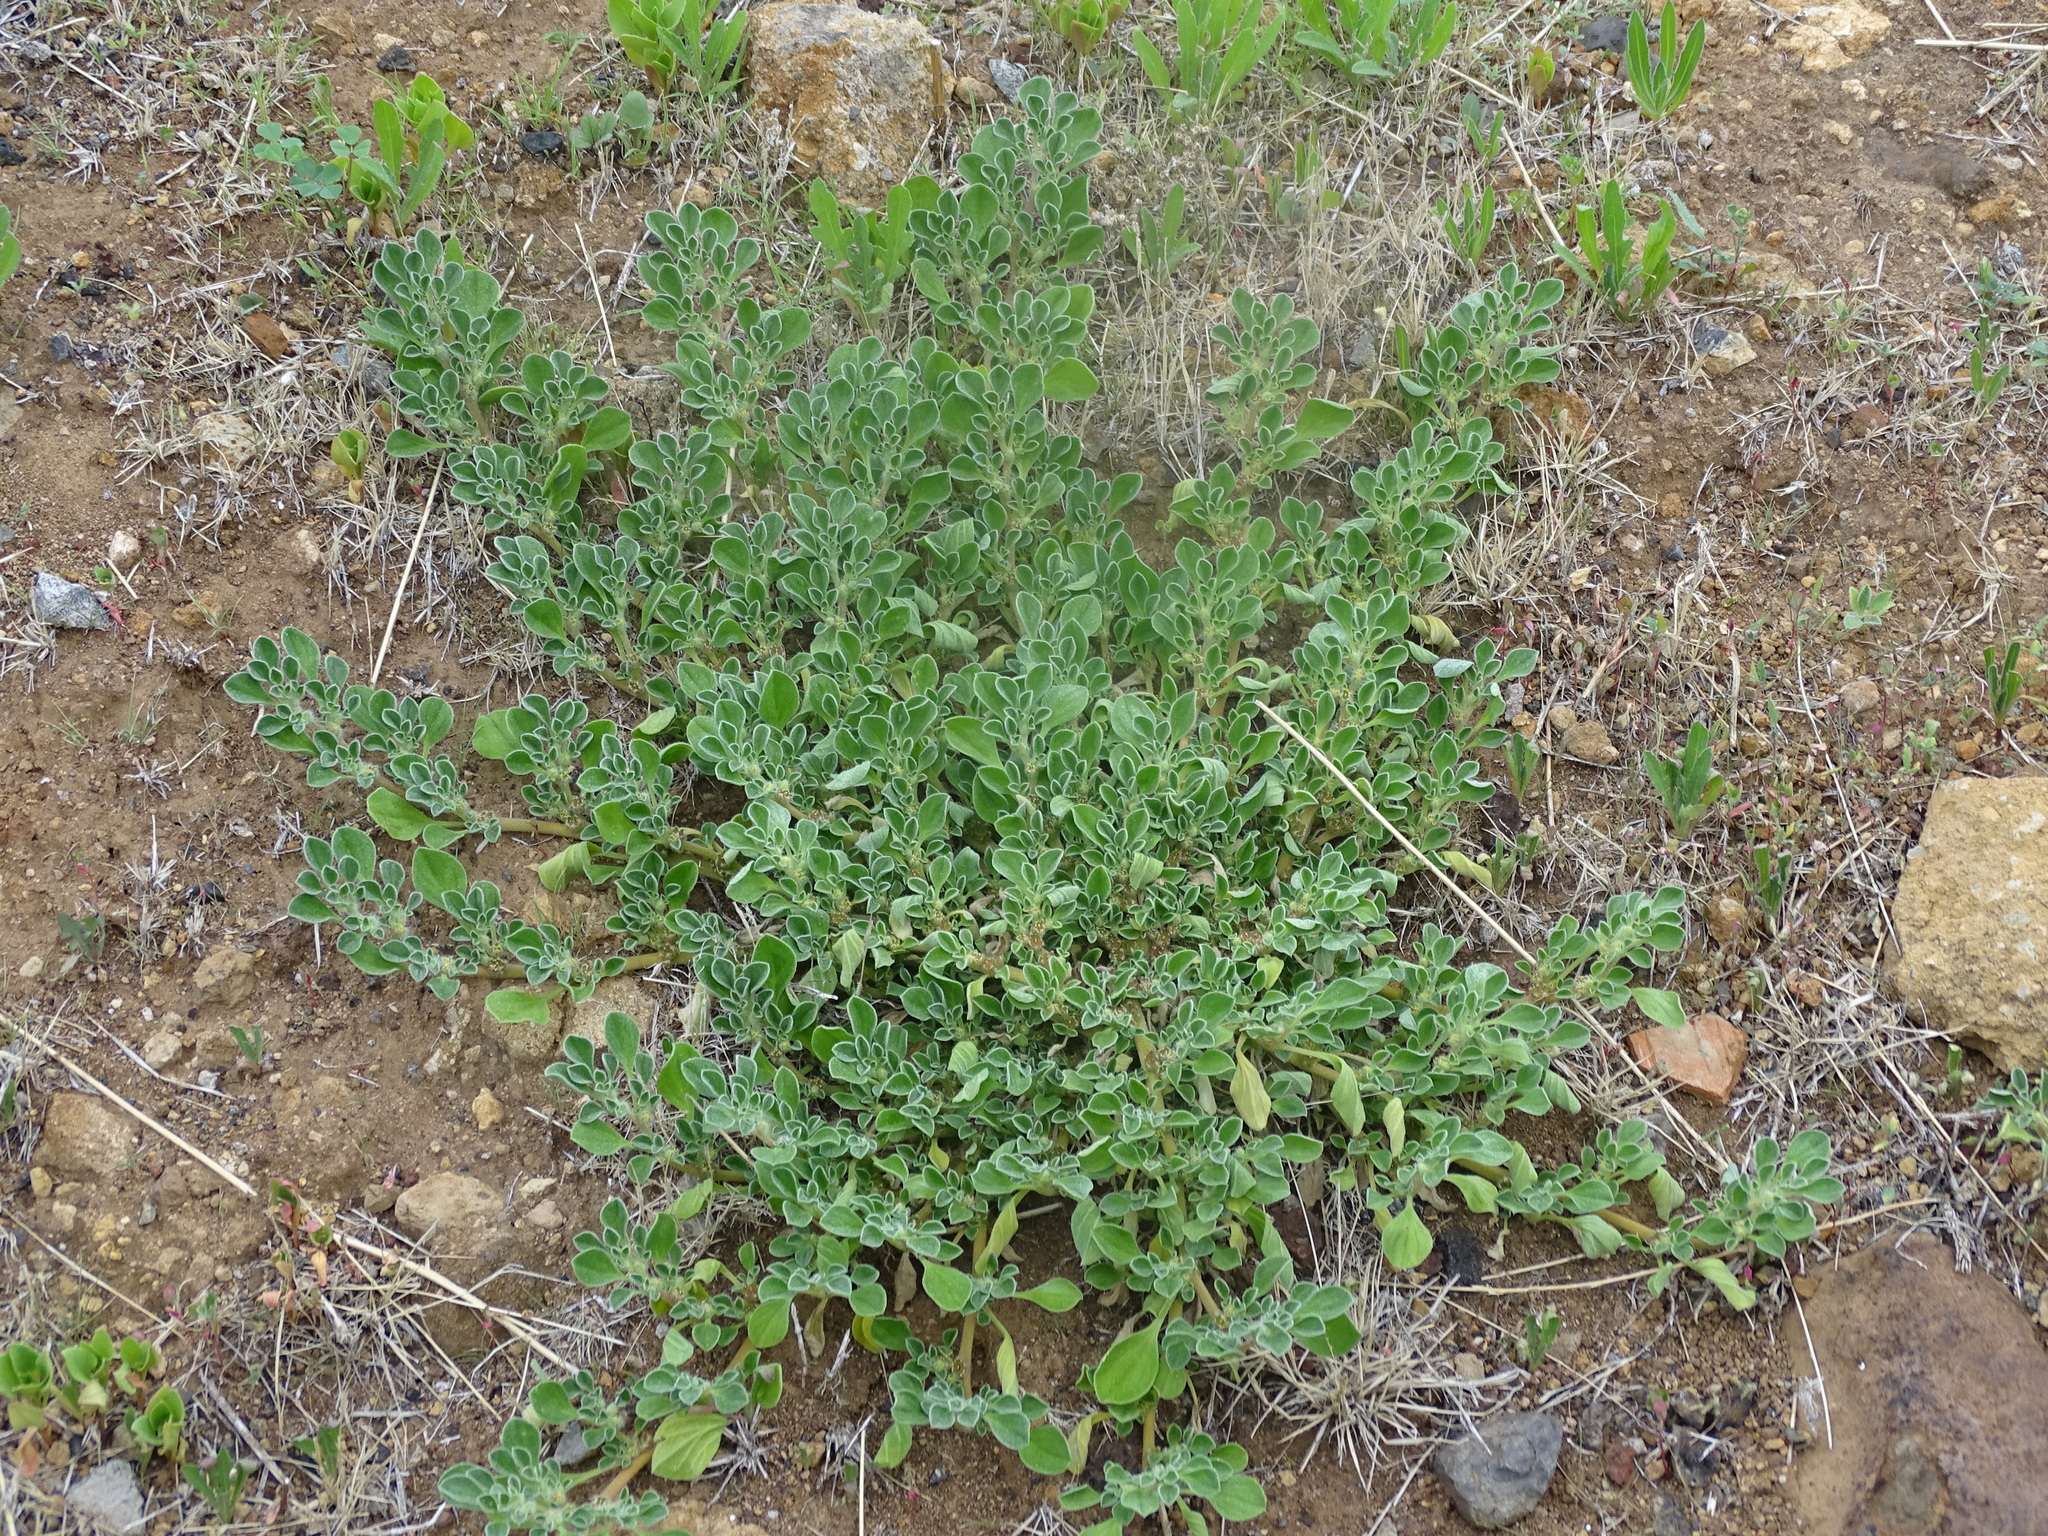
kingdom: Plantae
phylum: Tracheophyta
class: Magnoliopsida
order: Caryophyllales
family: Aizoaceae
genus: Aizoon
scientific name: Aizoon canariense
